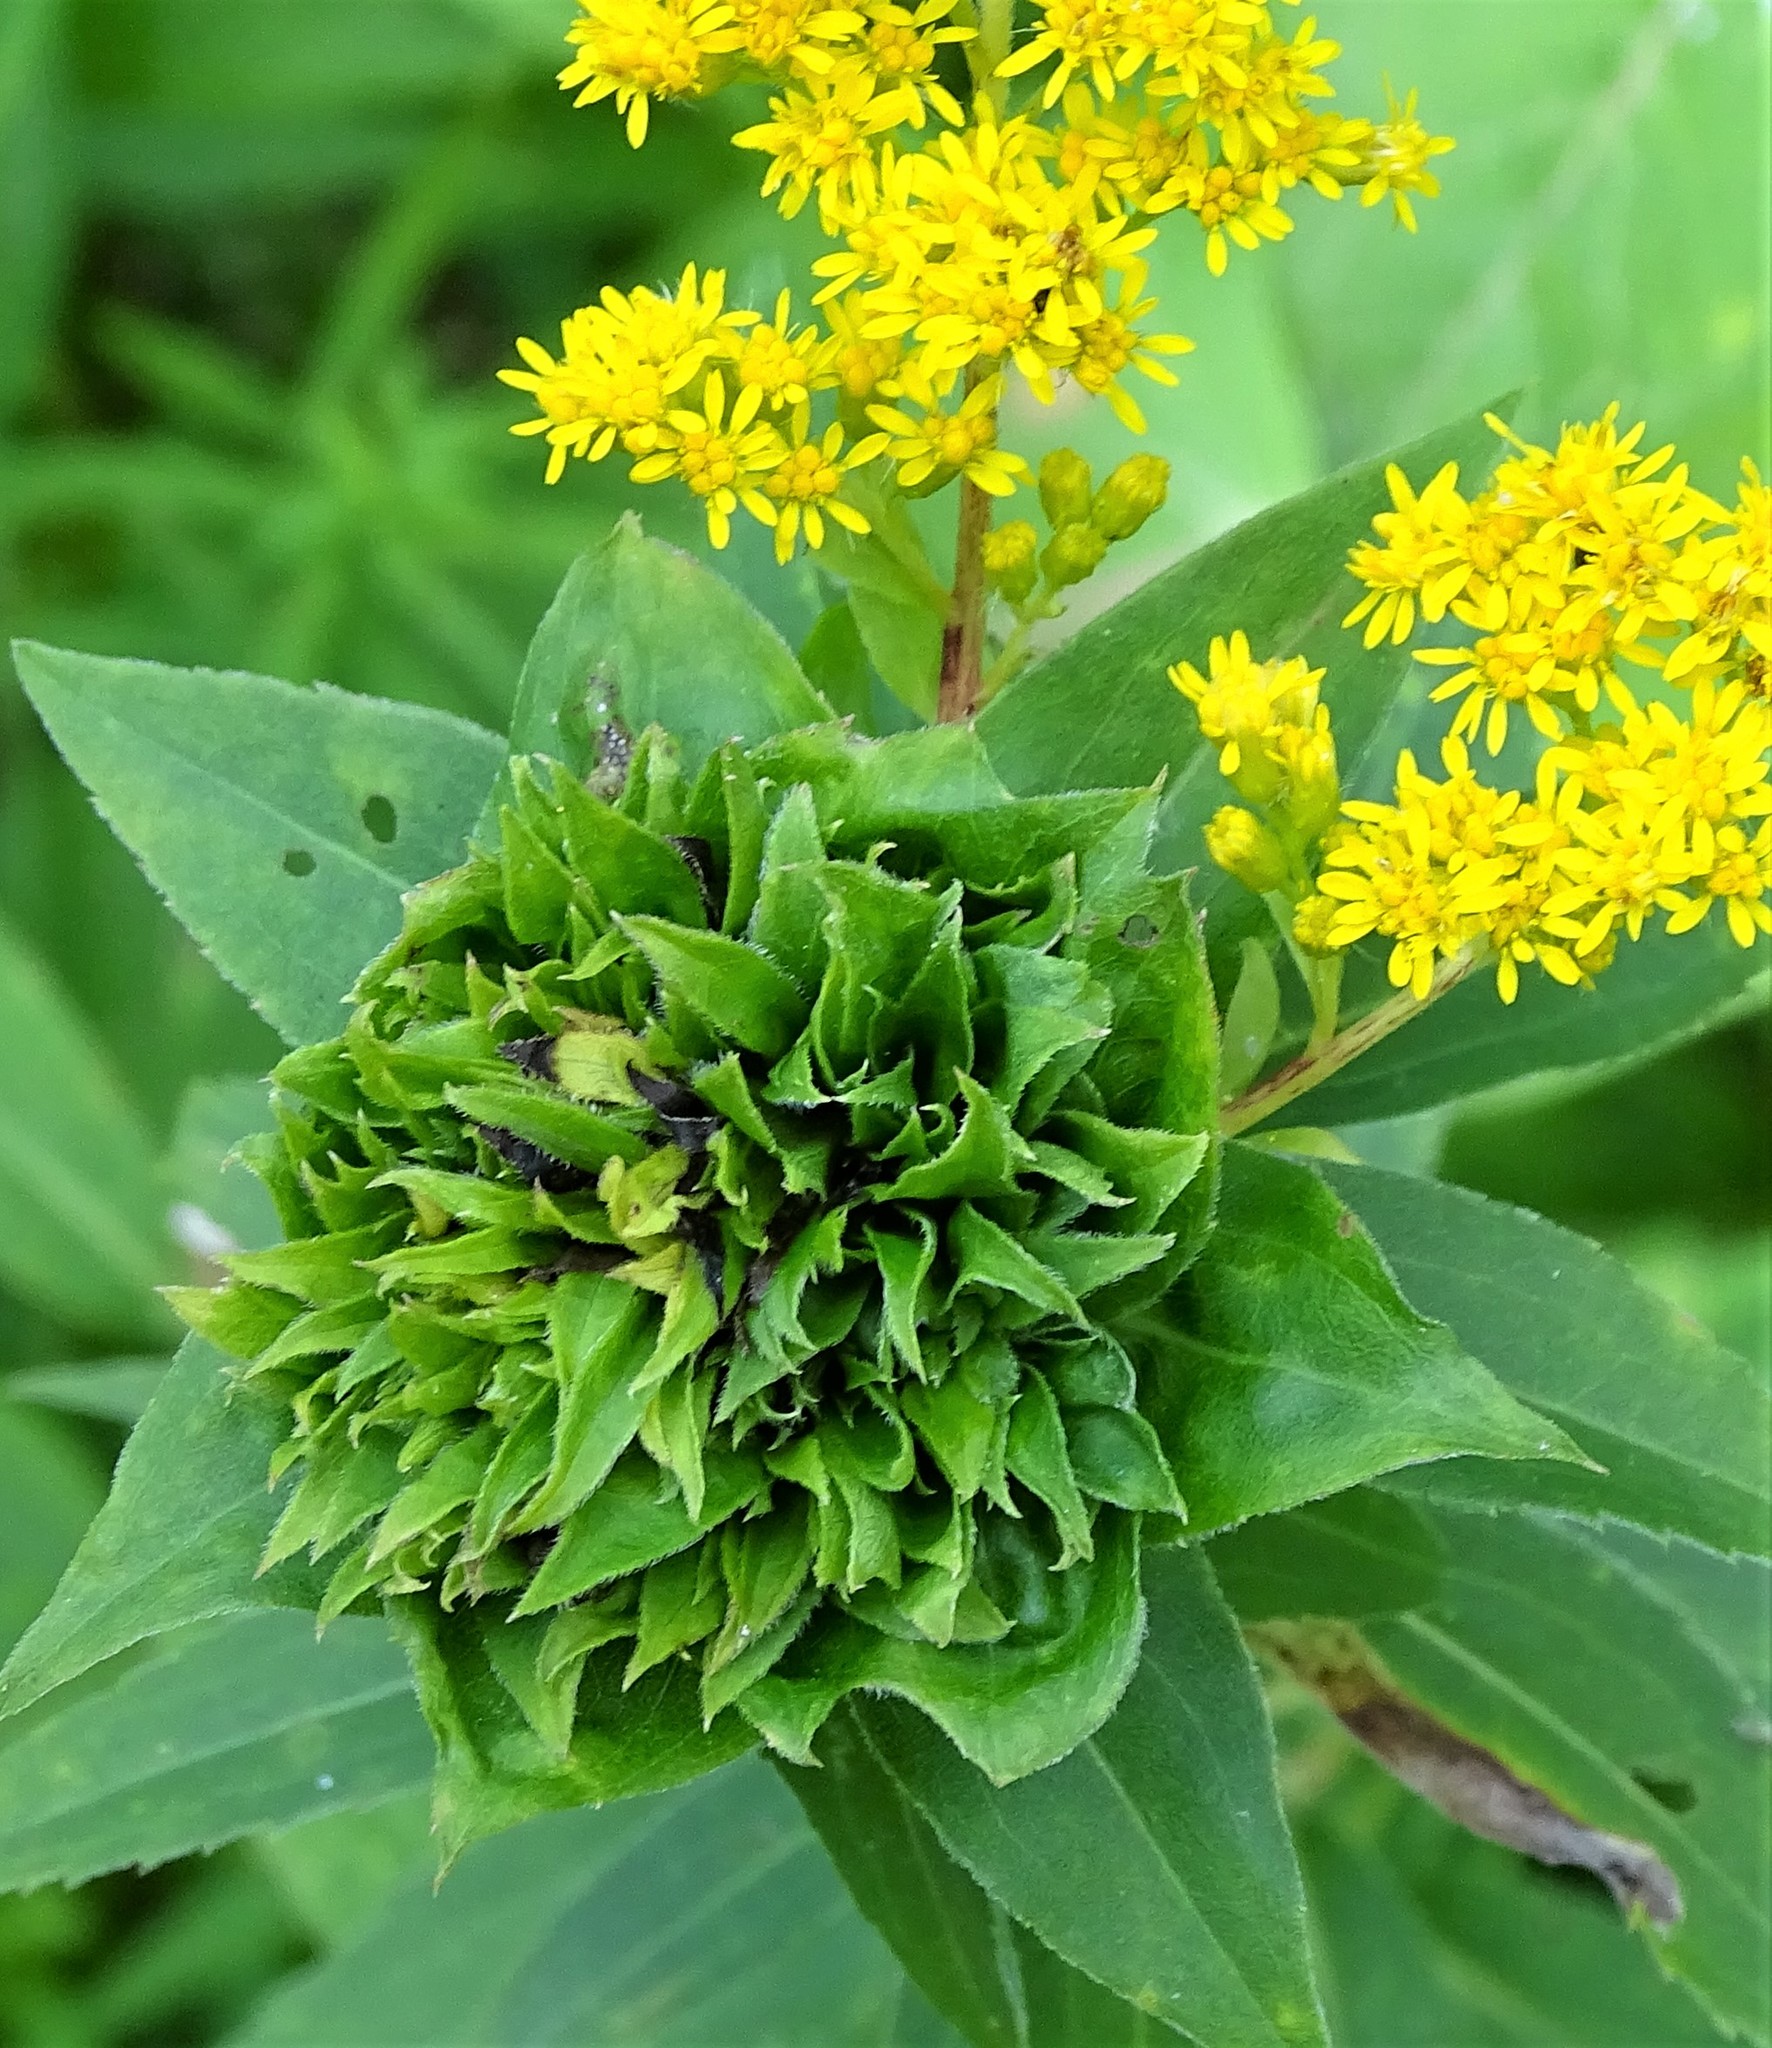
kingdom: Animalia
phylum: Arthropoda
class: Insecta
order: Diptera
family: Cecidomyiidae
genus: Rhopalomyia
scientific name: Rhopalomyia solidaginis
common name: Goldenrod bunch gall midge
